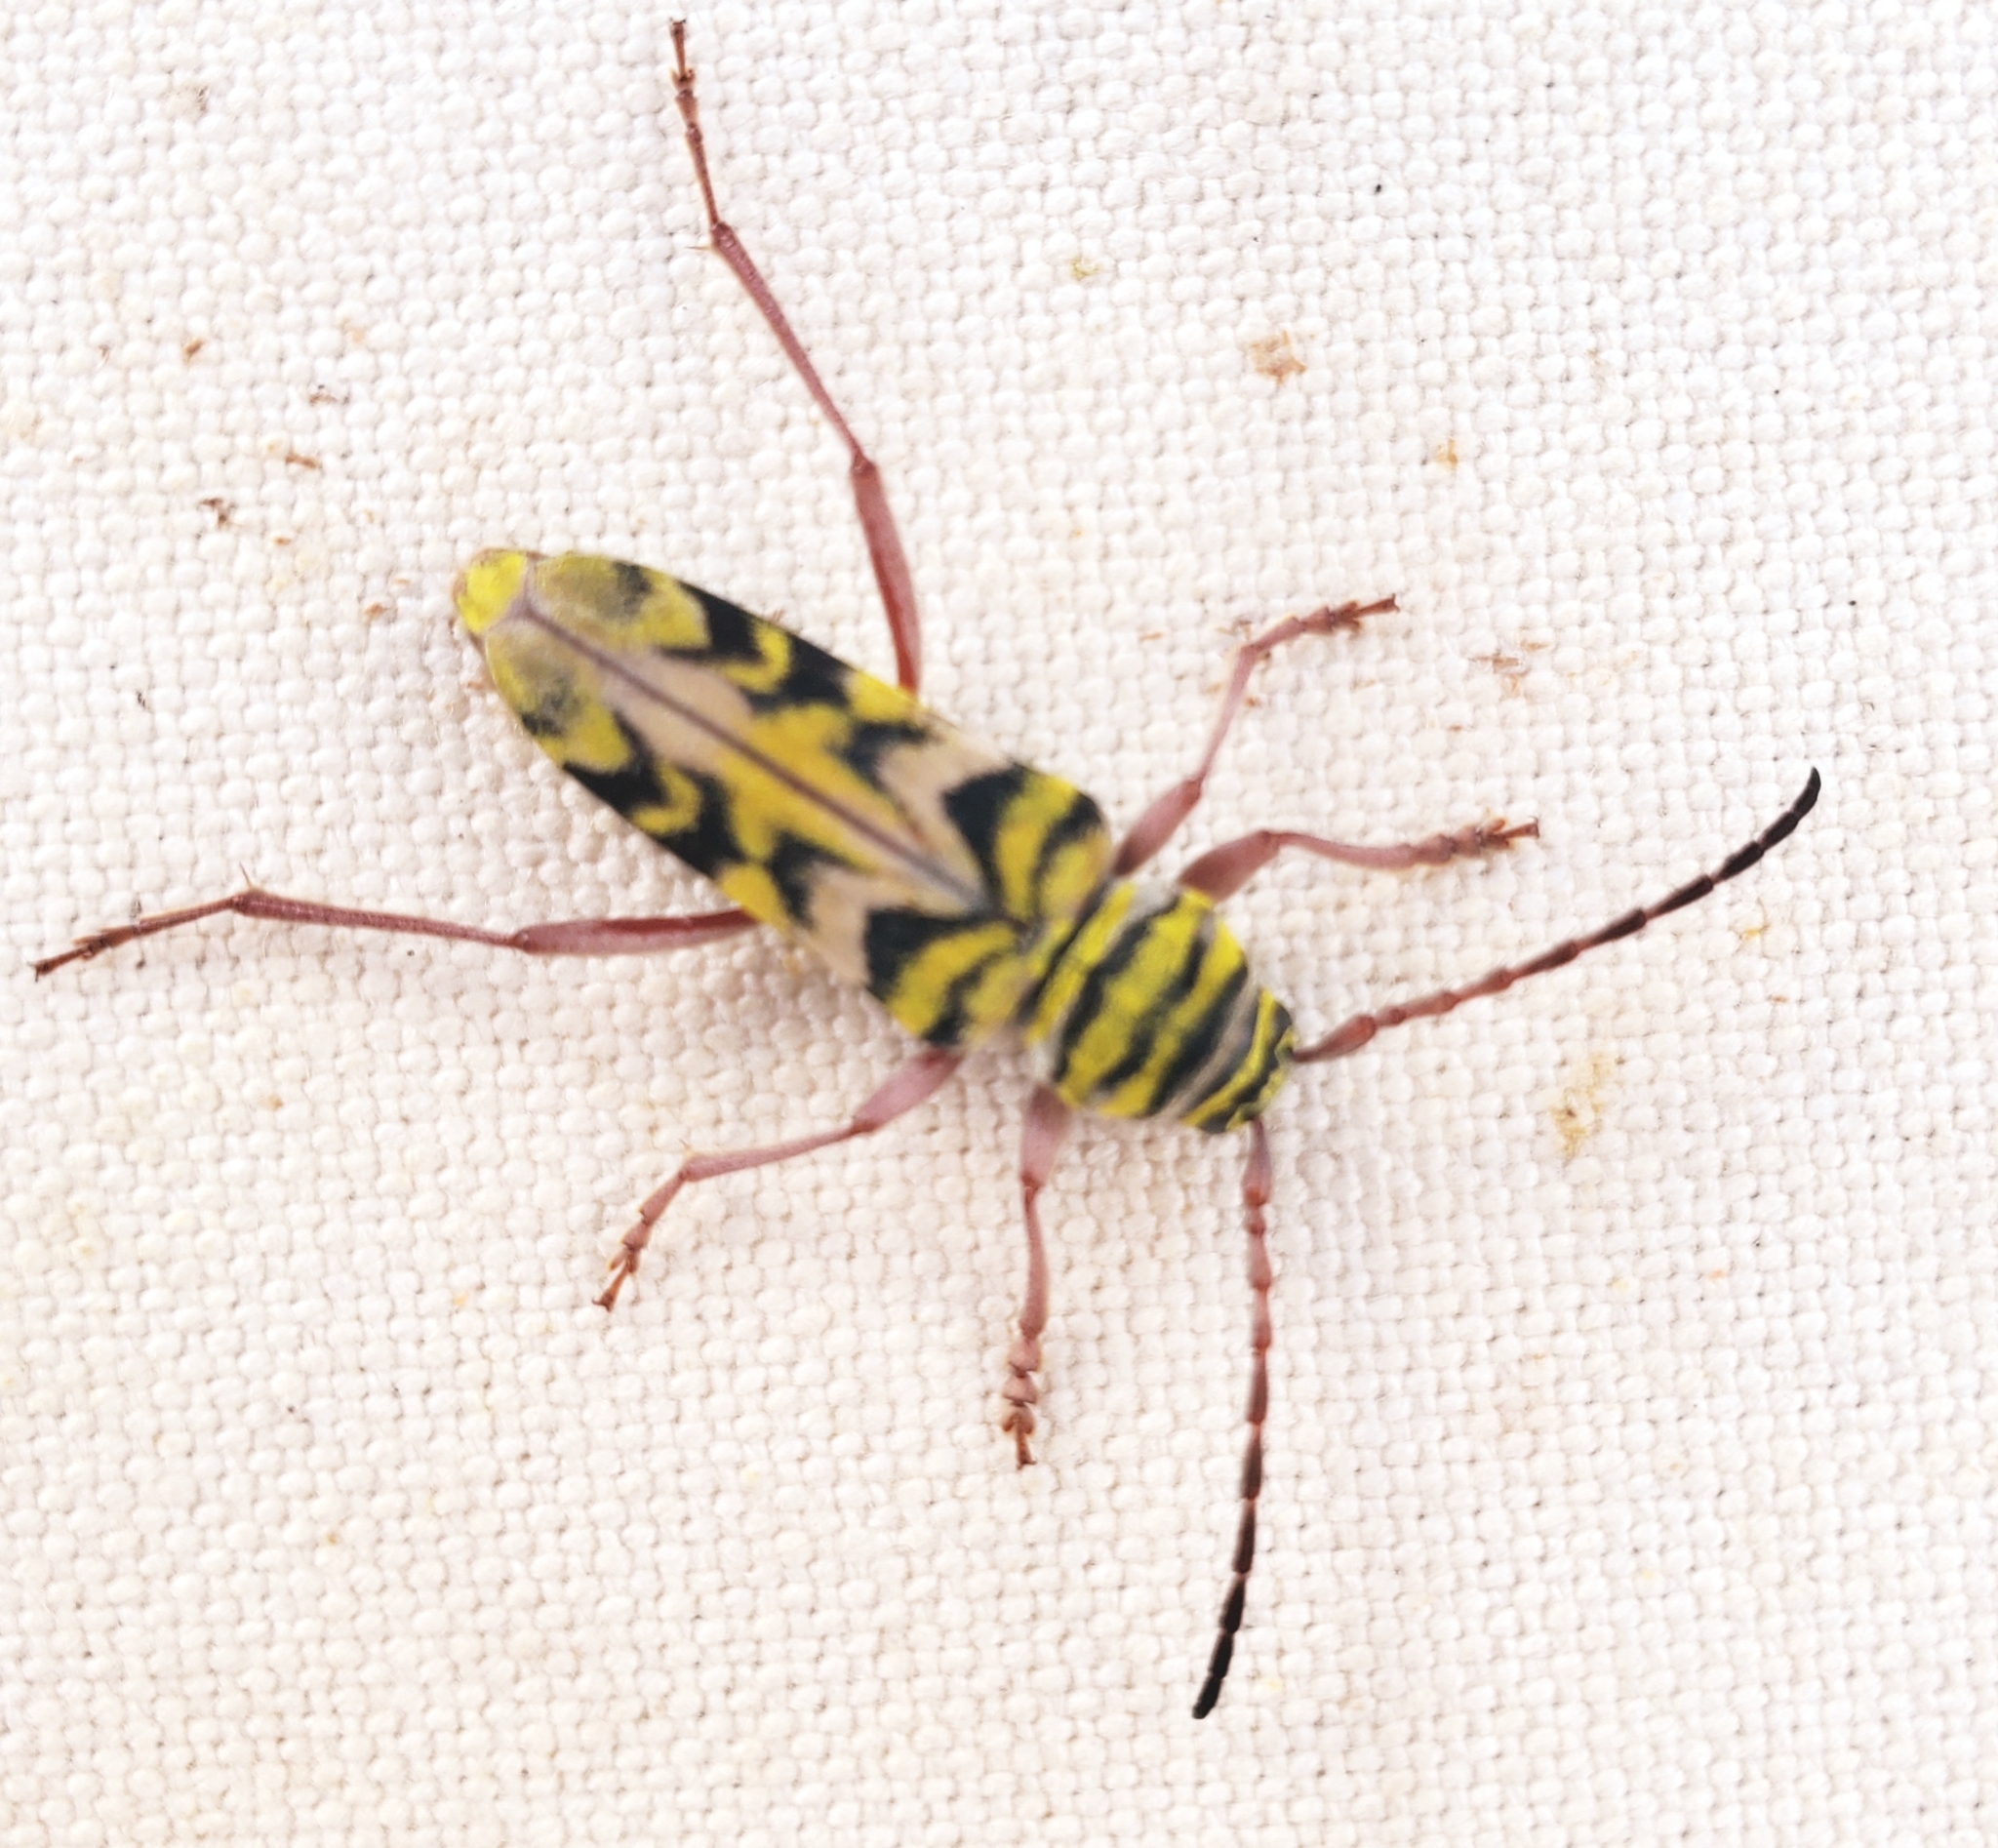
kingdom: Animalia
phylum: Arthropoda
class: Insecta
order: Coleoptera
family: Cerambycidae
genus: Megacyllene
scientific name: Megacyllene snowi
